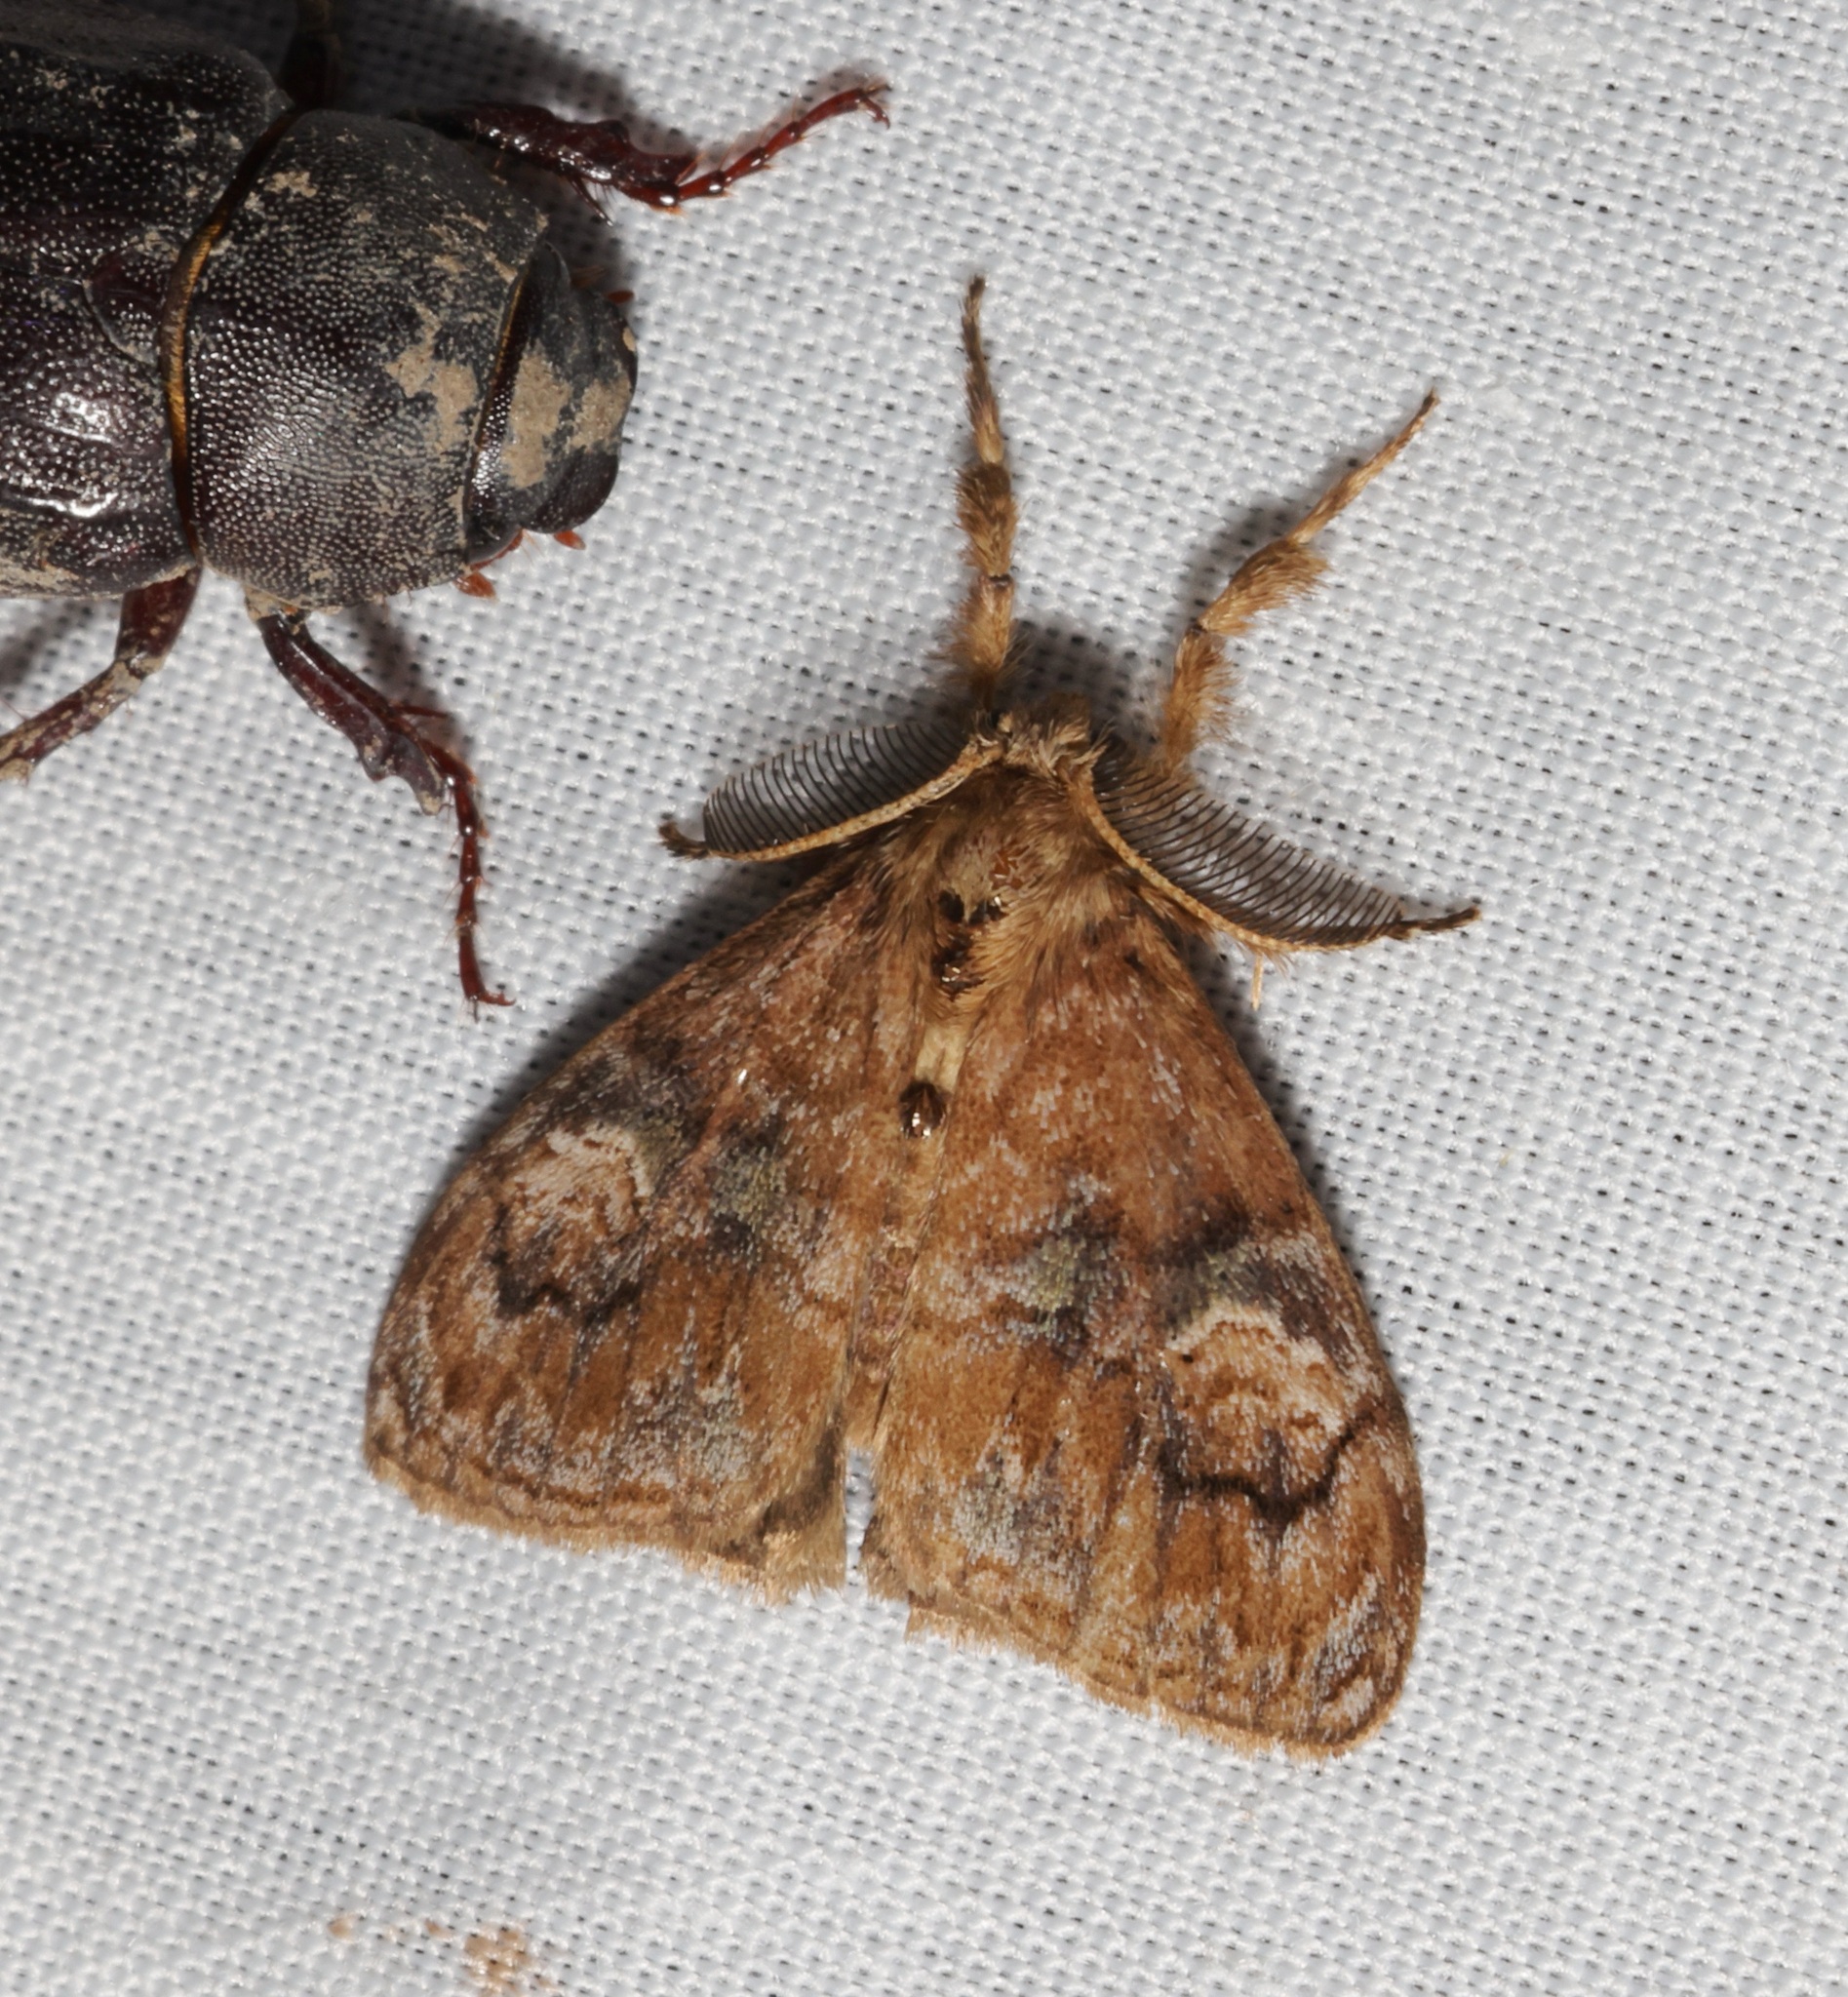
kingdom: Animalia
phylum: Arthropoda
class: Insecta
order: Lepidoptera
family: Erebidae
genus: Orgyia
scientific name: Orgyia postica
